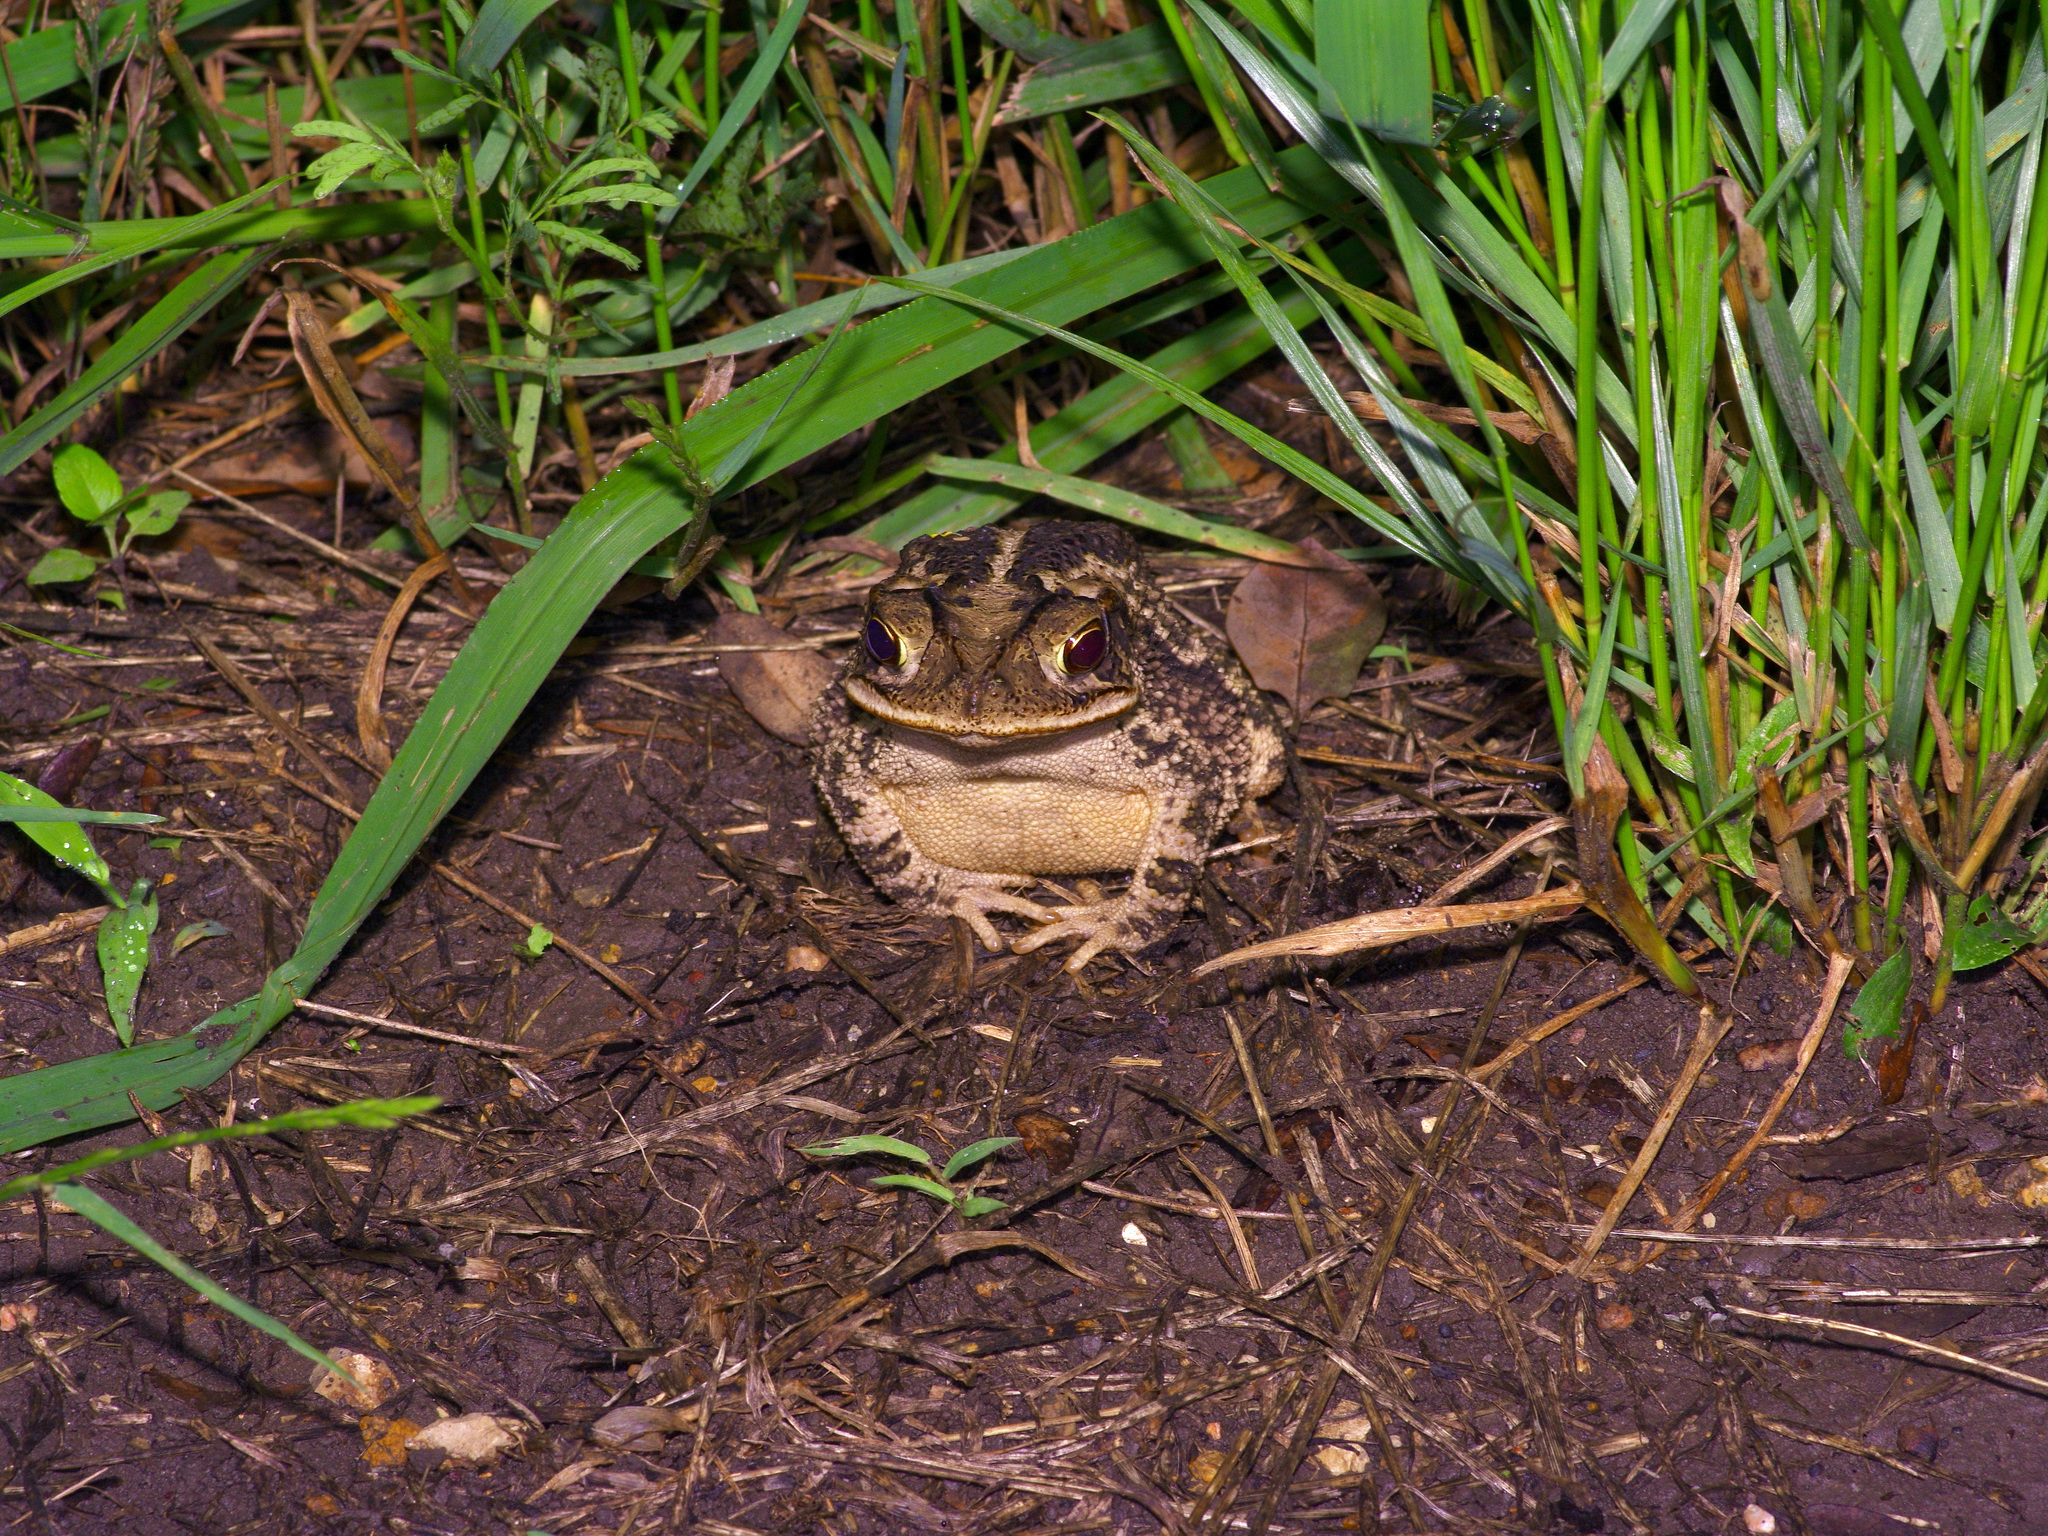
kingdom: Animalia
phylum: Chordata
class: Amphibia
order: Anura
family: Bufonidae
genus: Incilius
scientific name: Incilius nebulifer
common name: Gulf coast toad
